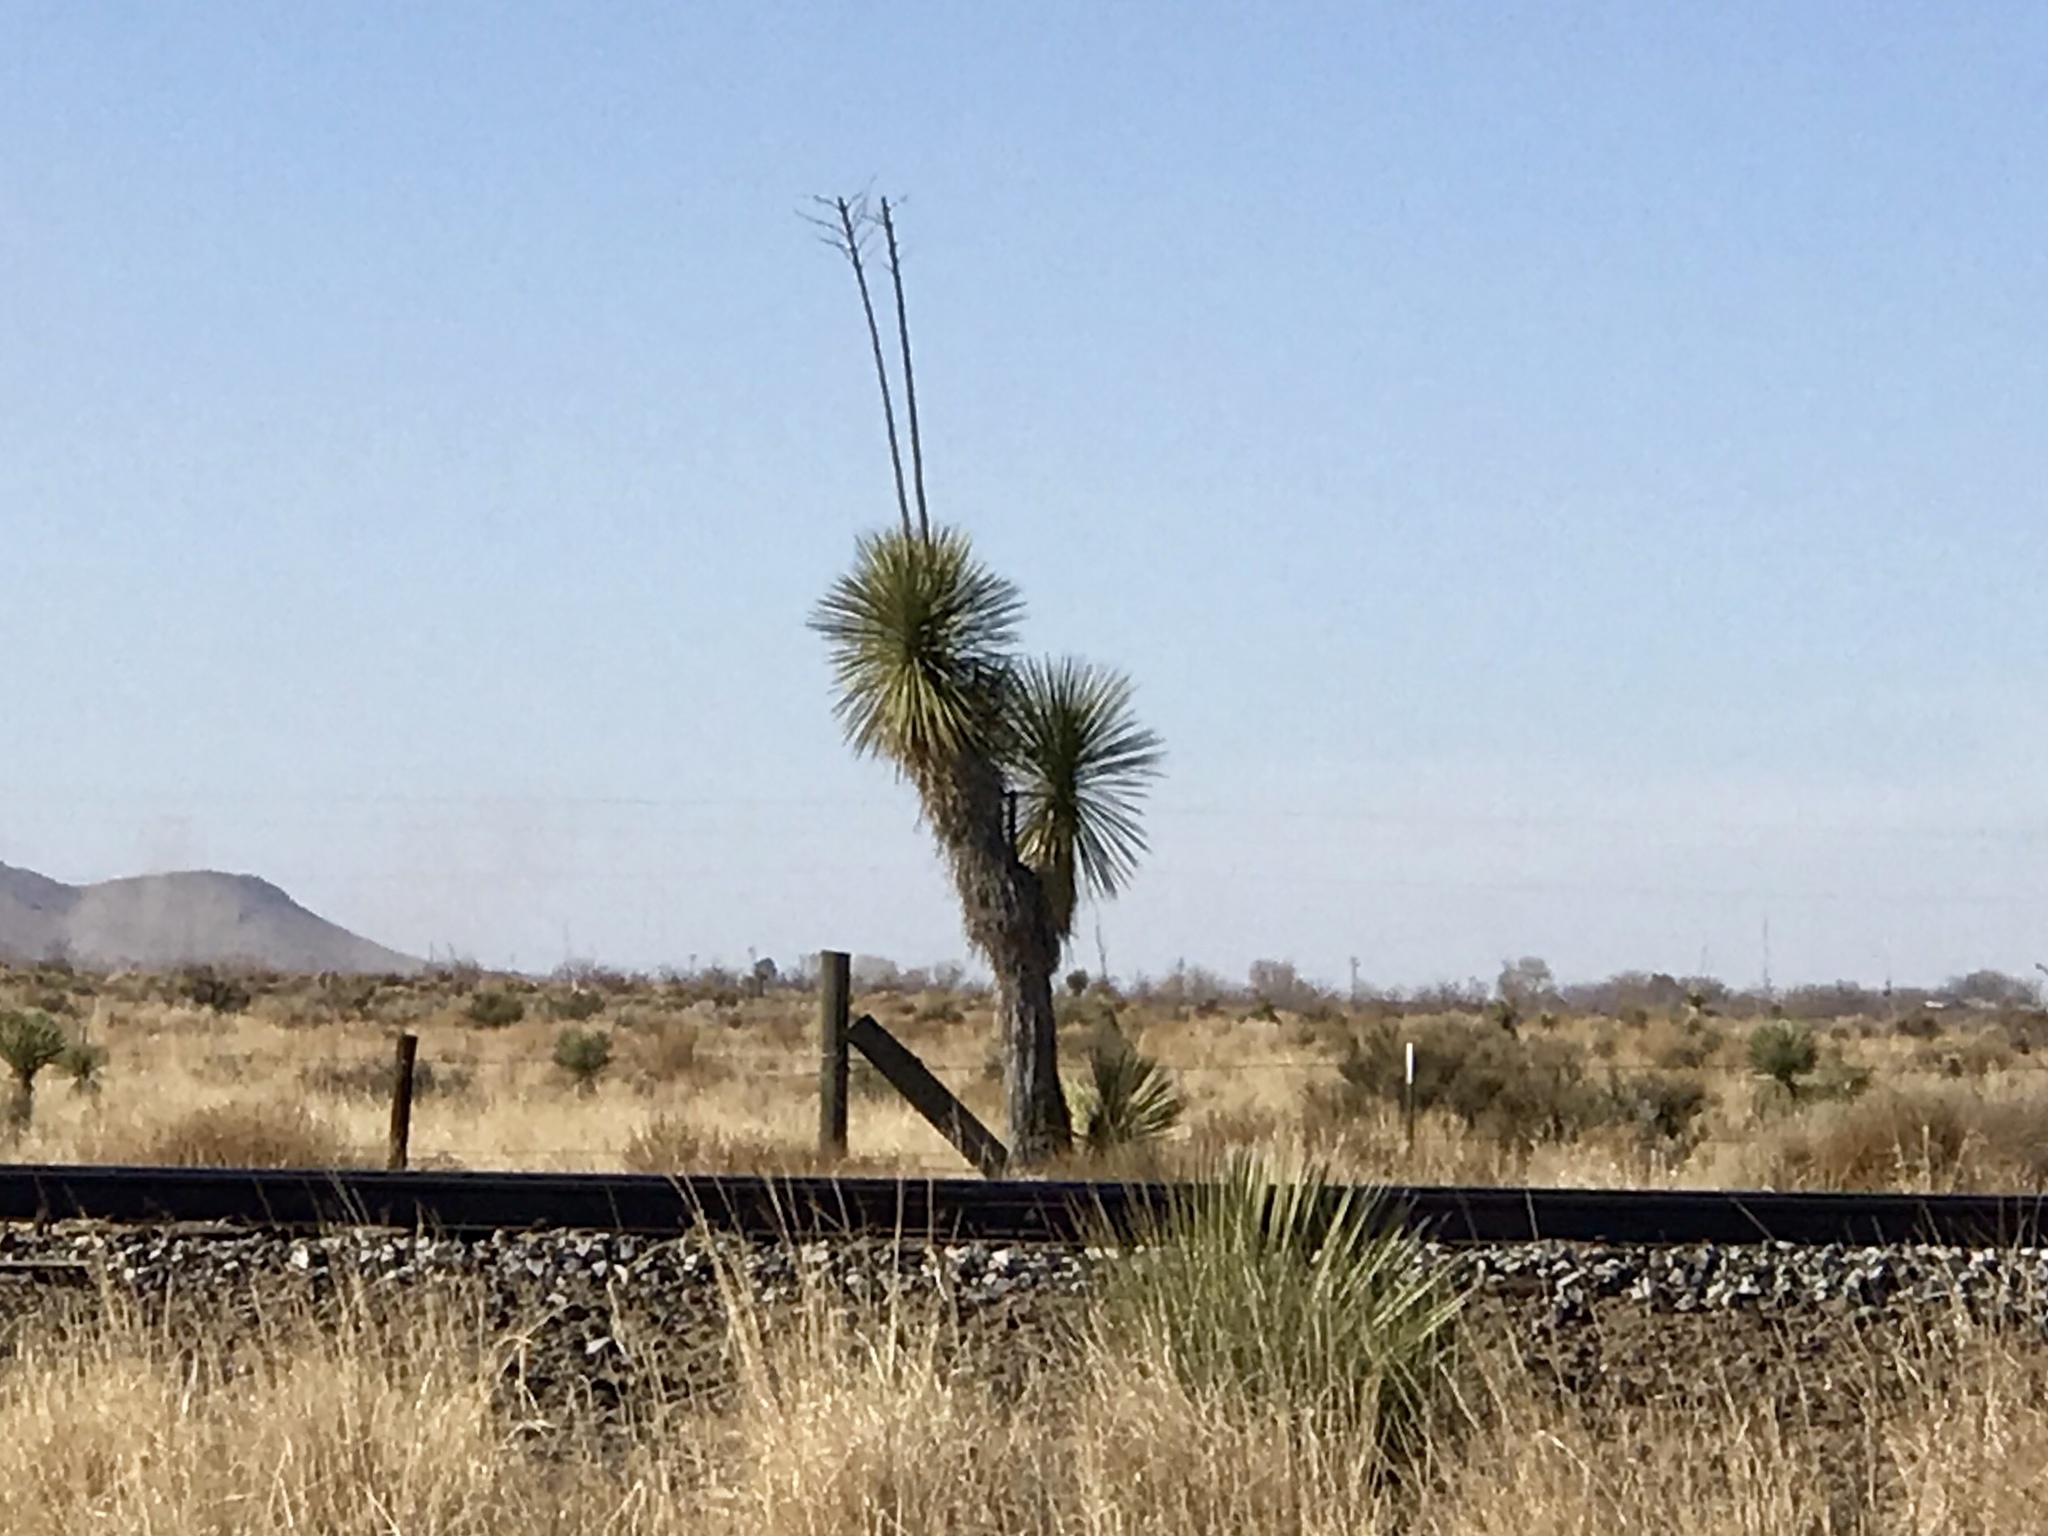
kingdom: Plantae
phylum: Tracheophyta
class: Liliopsida
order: Asparagales
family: Asparagaceae
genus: Yucca
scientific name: Yucca elata
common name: Palmella
